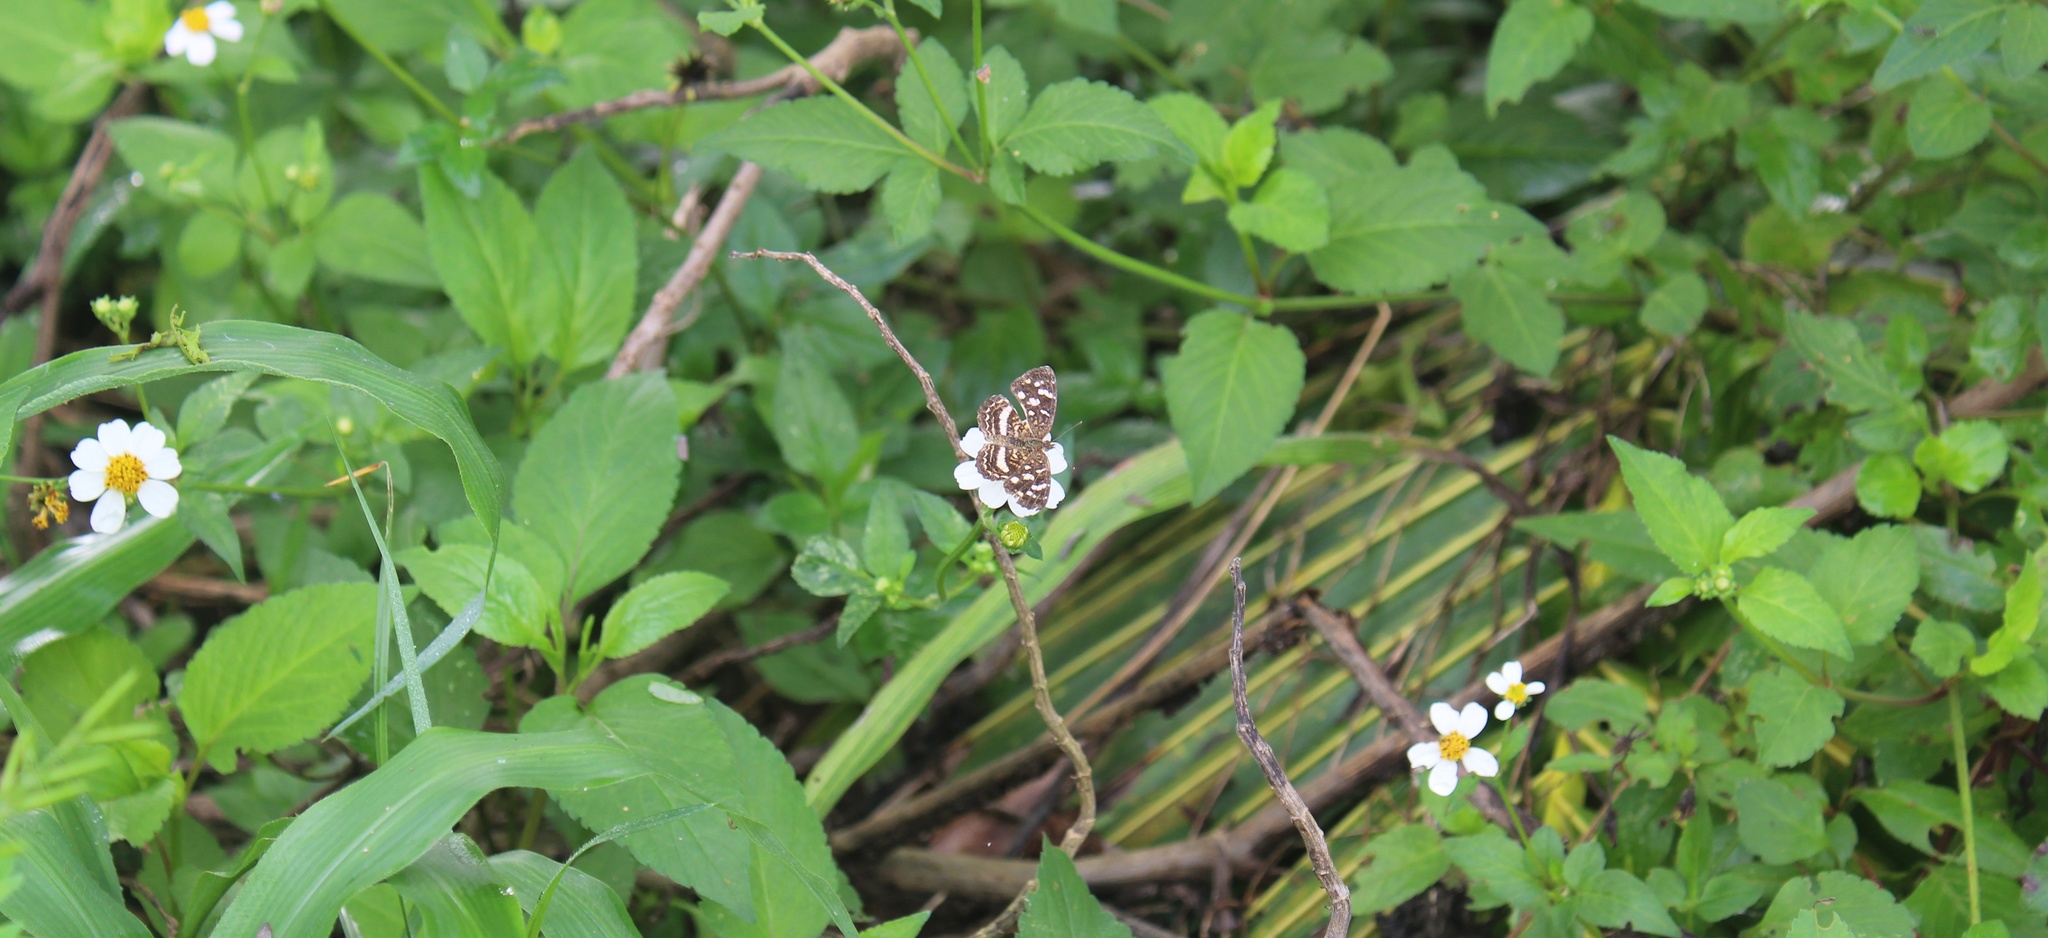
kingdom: Animalia
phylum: Arthropoda
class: Insecta
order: Lepidoptera
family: Nymphalidae
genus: Anthanassa
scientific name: Anthanassa tulcis
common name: Pale-banded crescent
